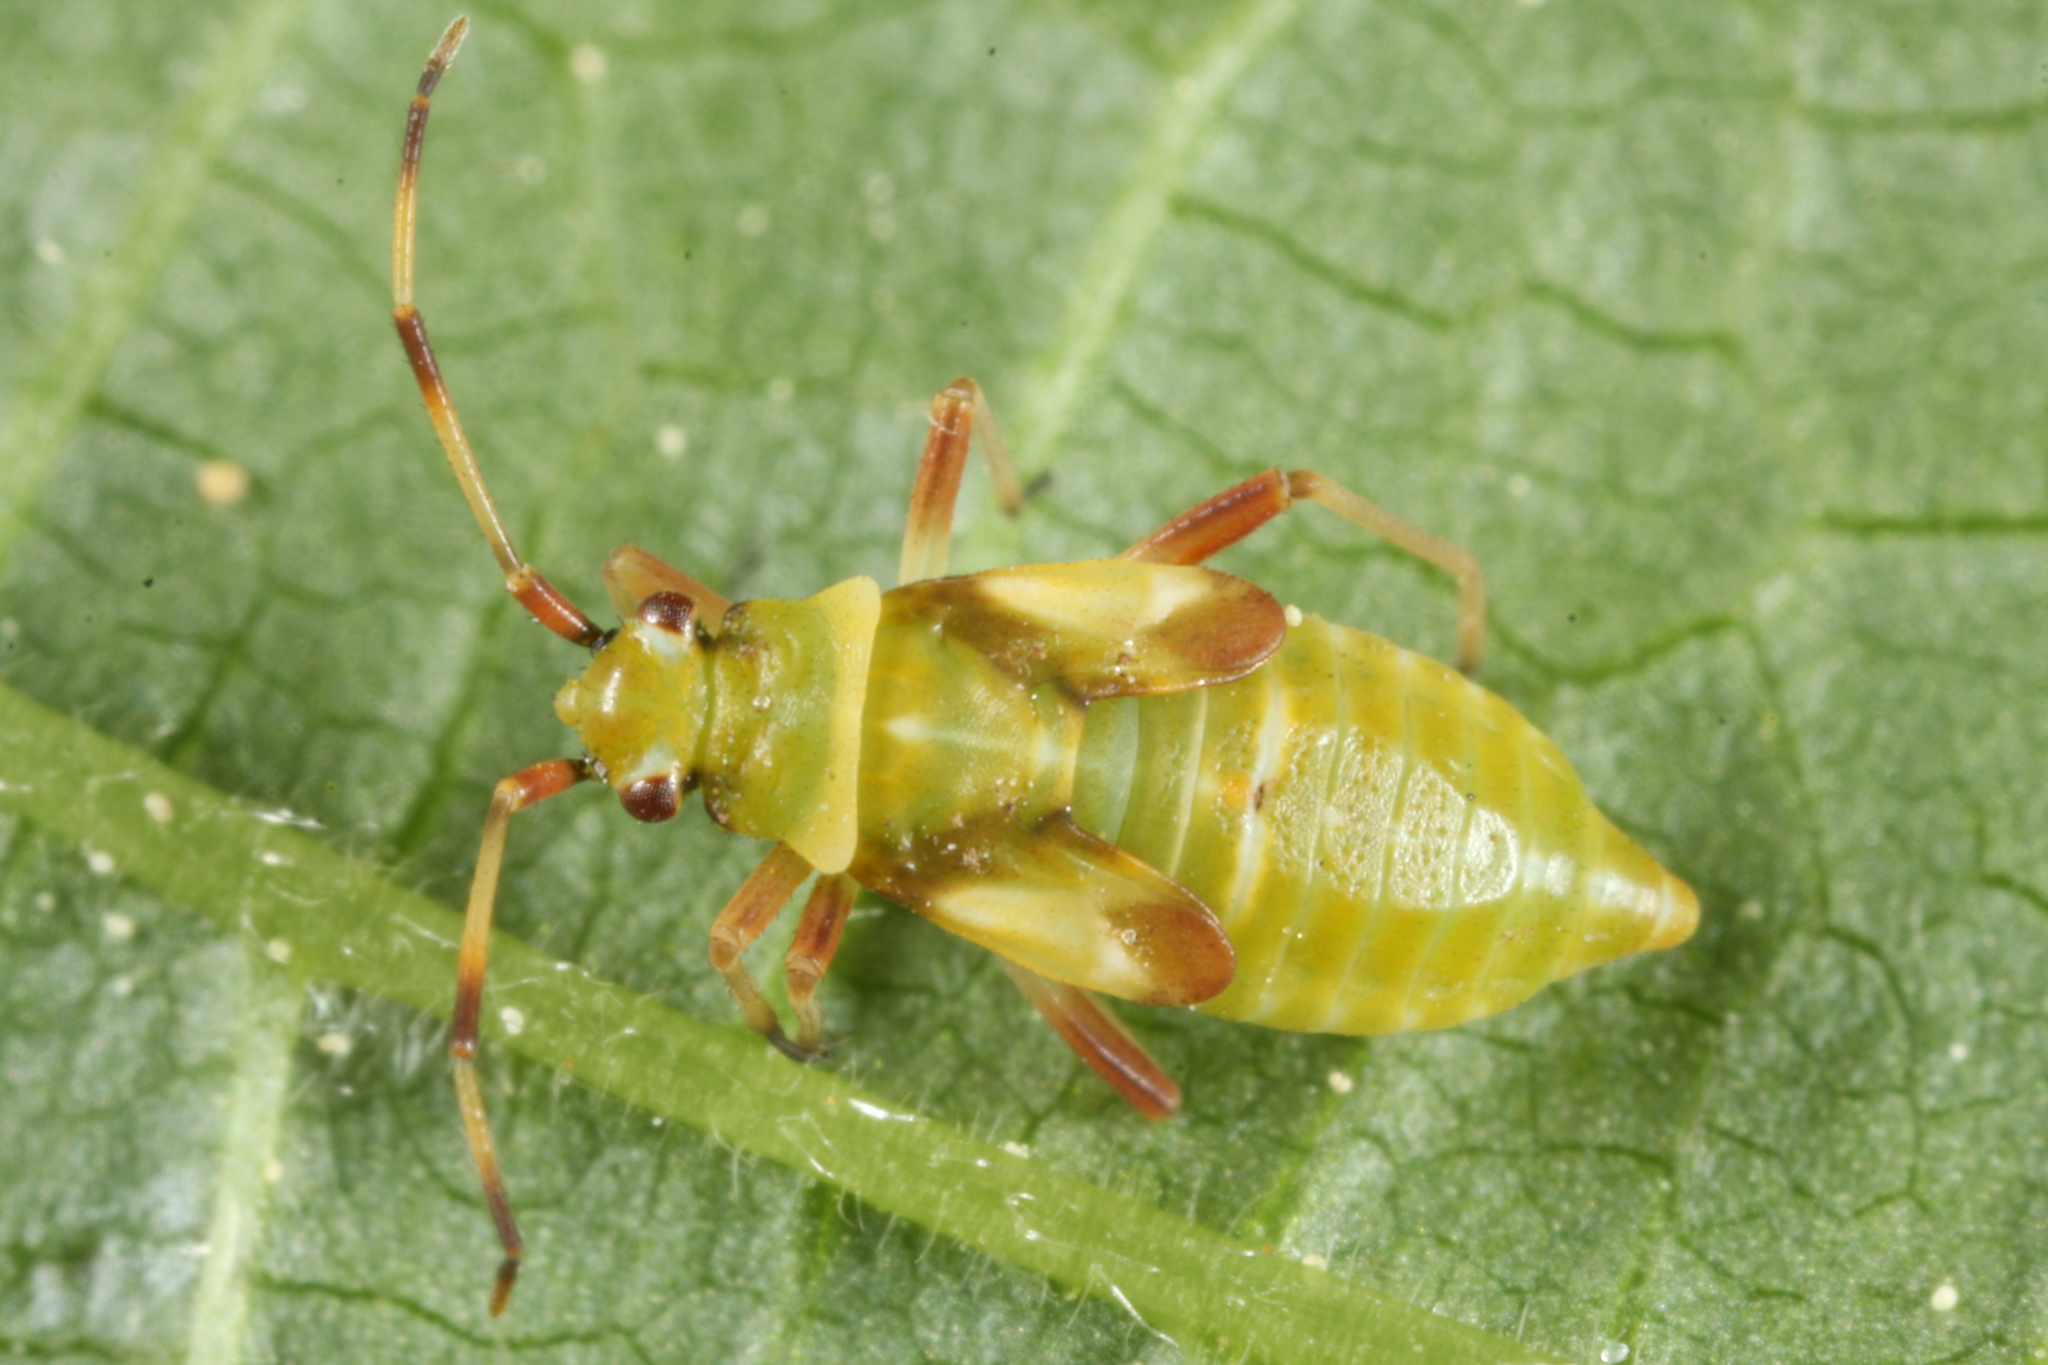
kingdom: Animalia
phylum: Arthropoda
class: Insecta
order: Hemiptera
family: Miridae
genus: Dryophilocoris
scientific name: Dryophilocoris flavoquadrimaculatus
